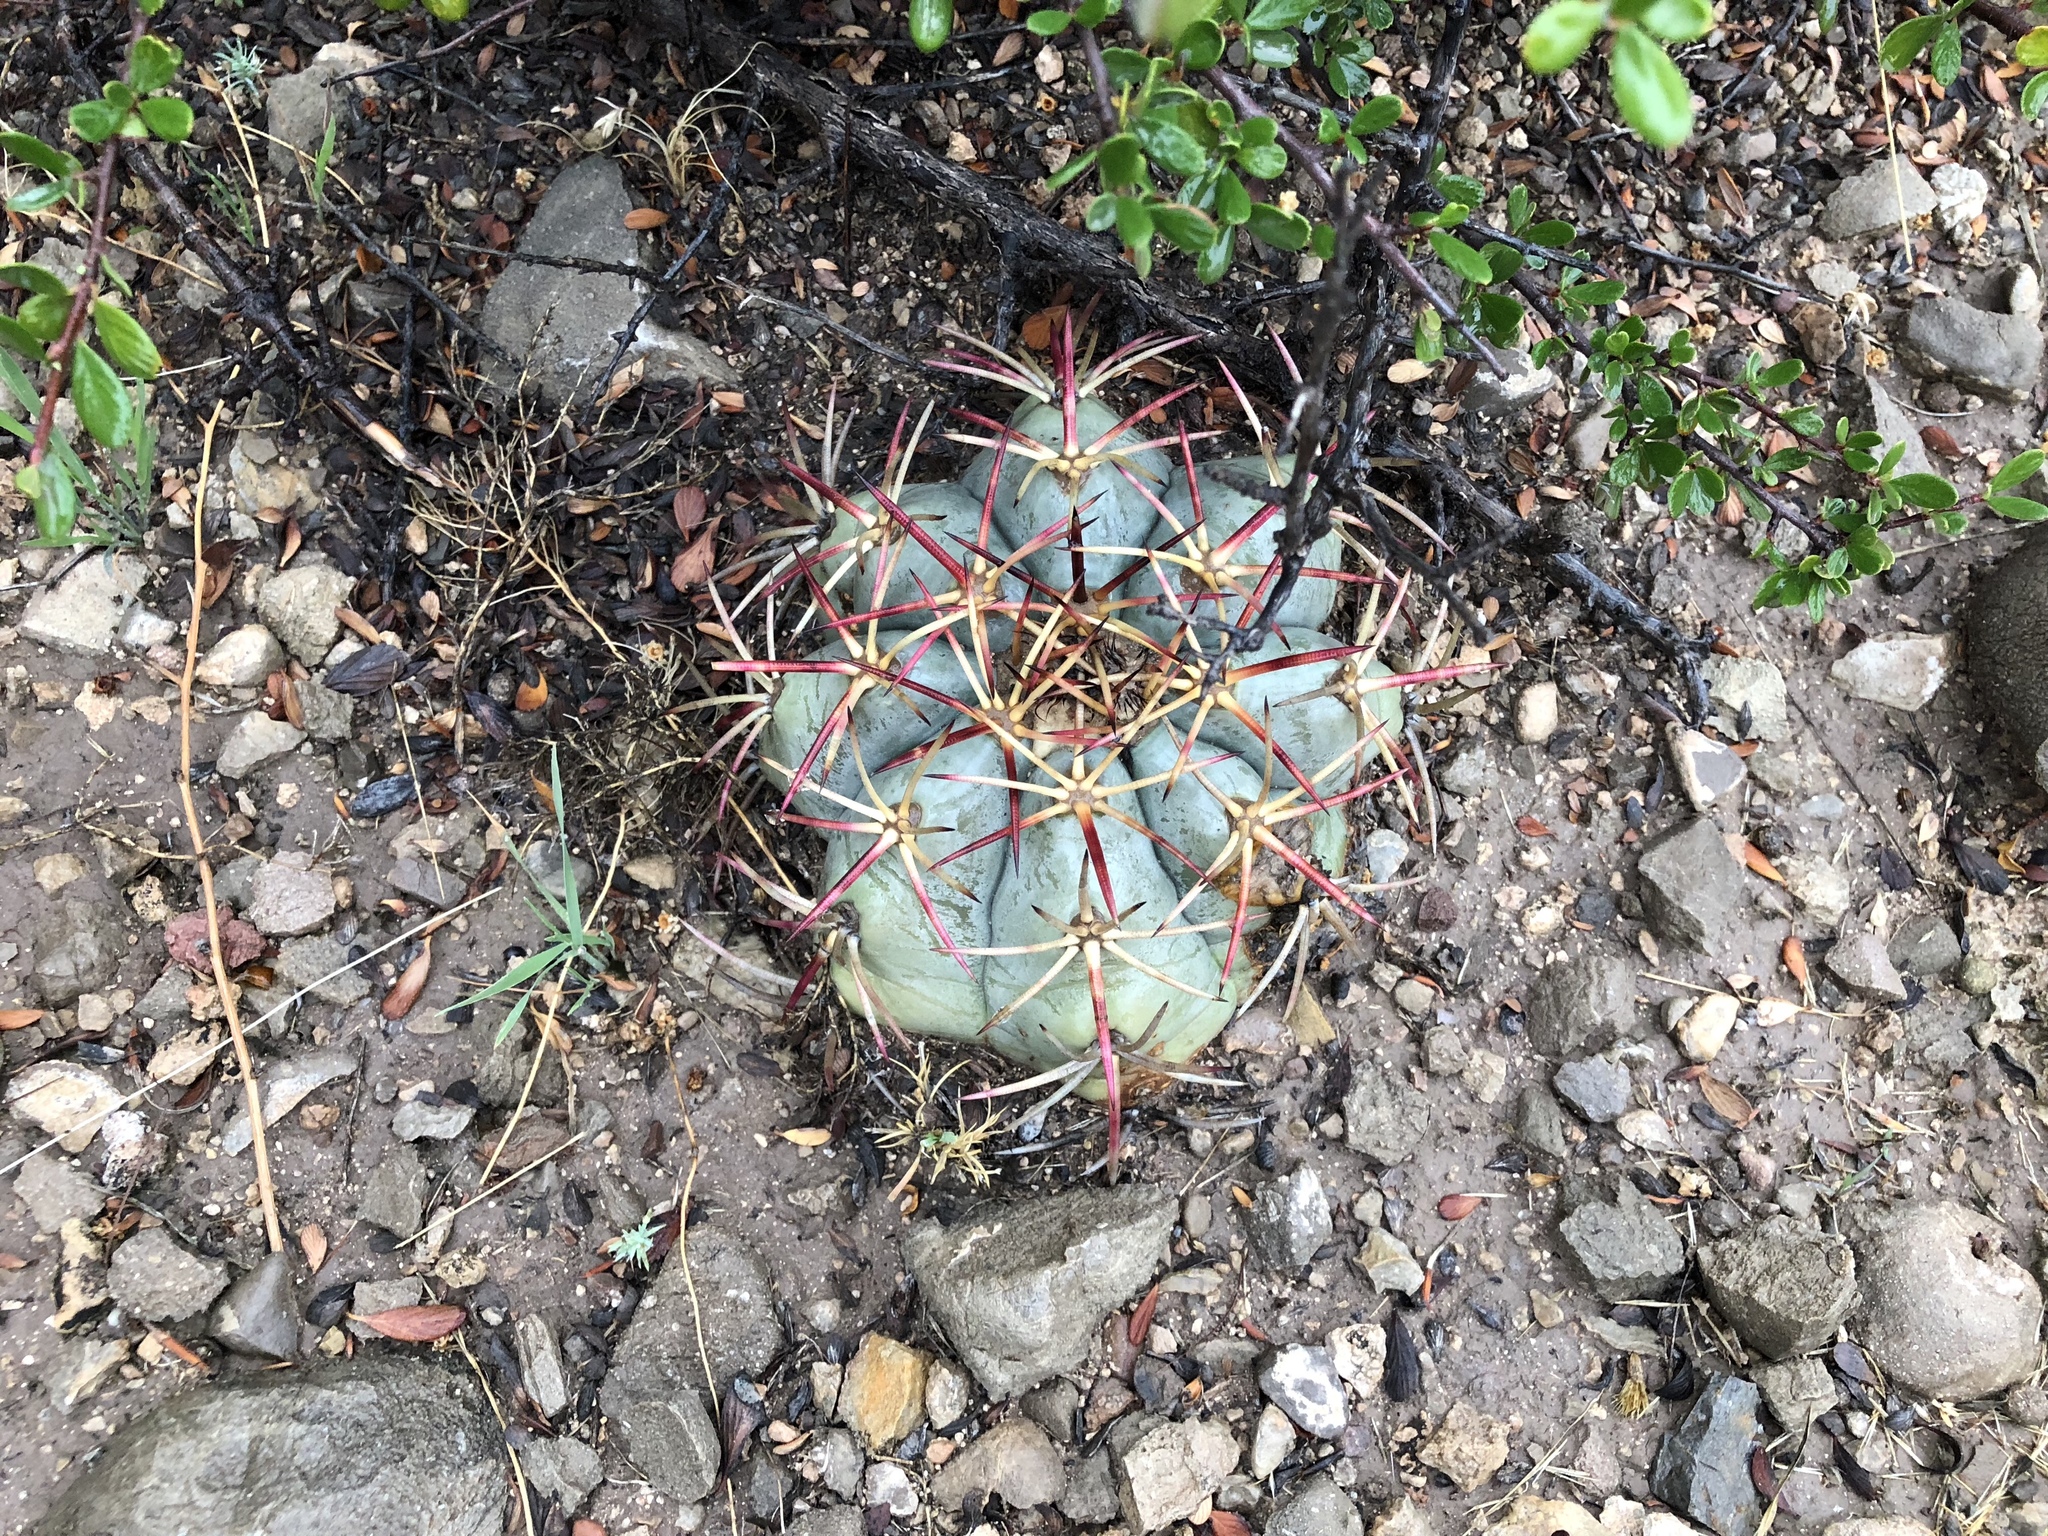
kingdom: Plantae
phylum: Tracheophyta
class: Magnoliopsida
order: Caryophyllales
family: Cactaceae
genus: Echinocactus
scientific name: Echinocactus horizonthalonius
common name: Devilshead
